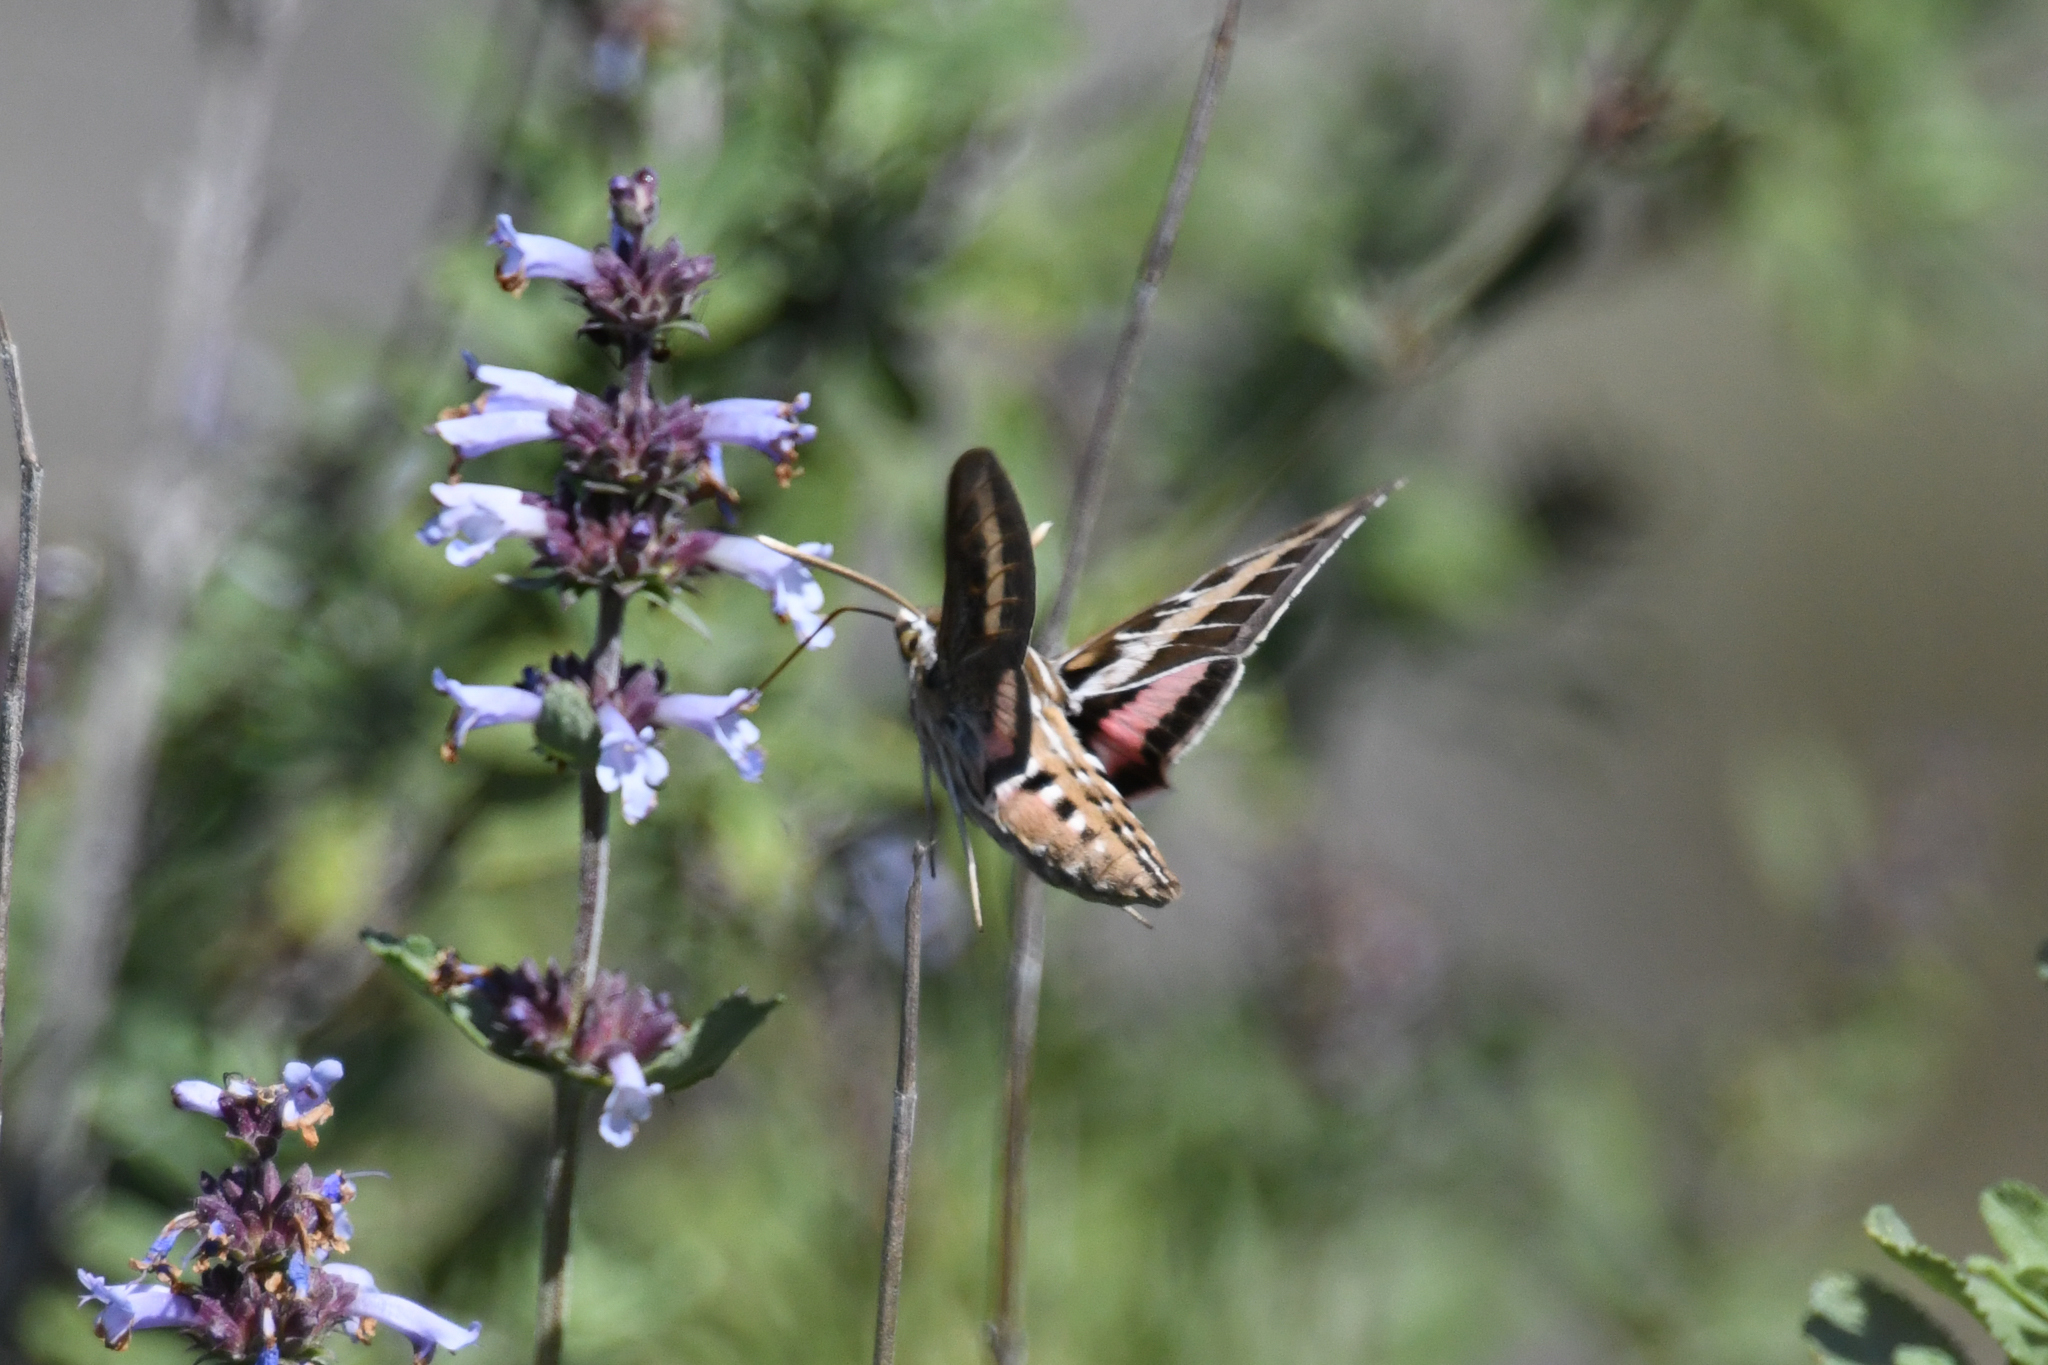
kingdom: Animalia
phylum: Arthropoda
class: Insecta
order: Lepidoptera
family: Sphingidae
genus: Hyles
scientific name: Hyles lineata
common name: White-lined sphinx
